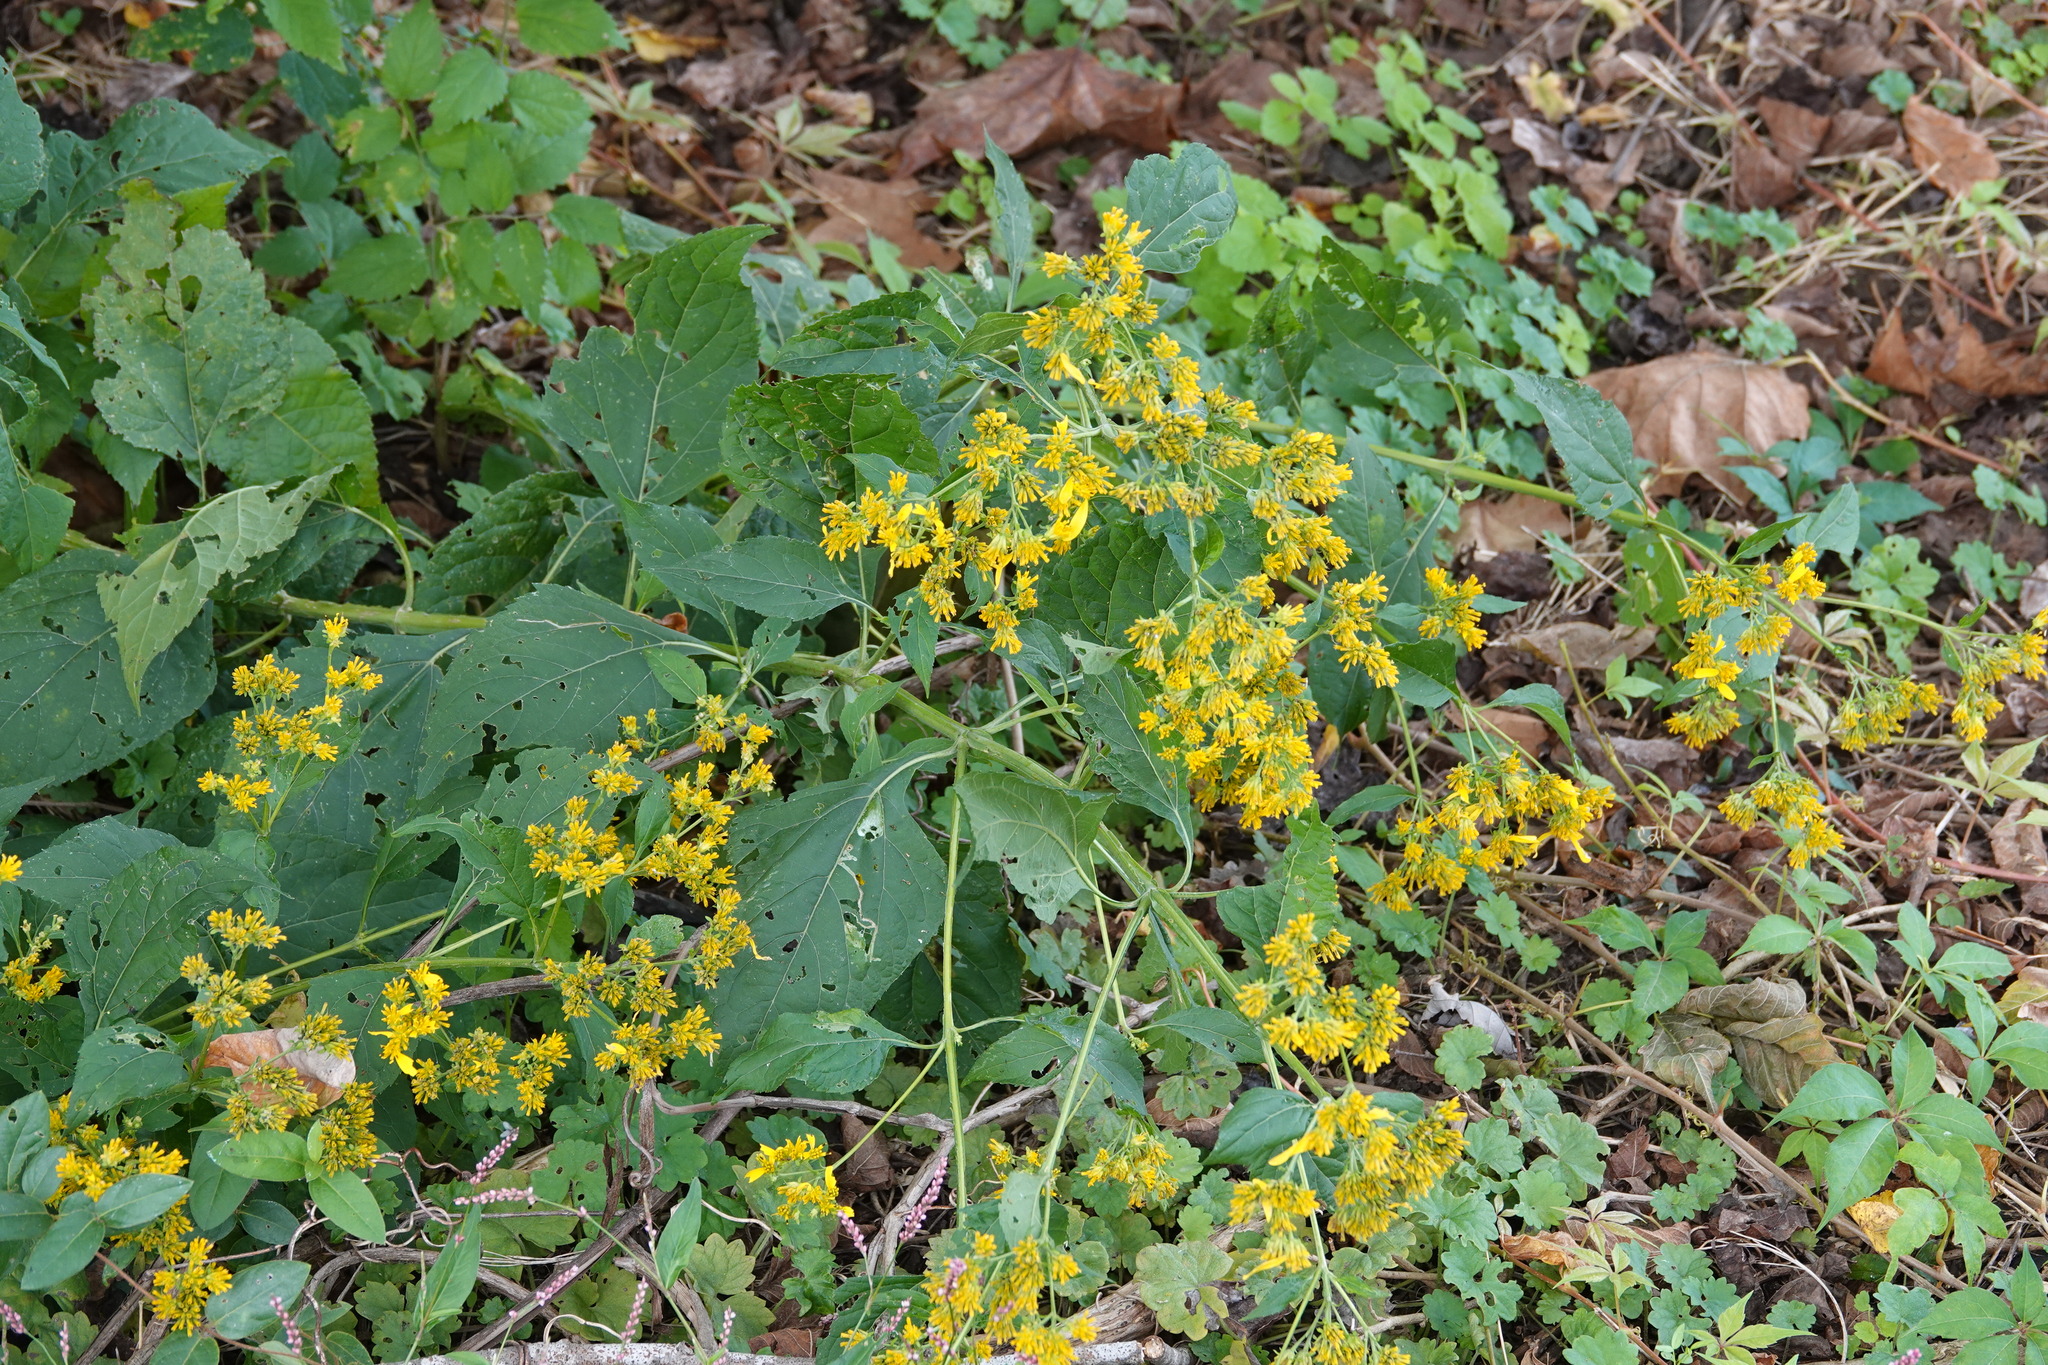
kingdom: Plantae
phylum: Tracheophyta
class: Magnoliopsida
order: Asterales
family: Asteraceae
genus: Verbesina
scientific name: Verbesina occidentalis
